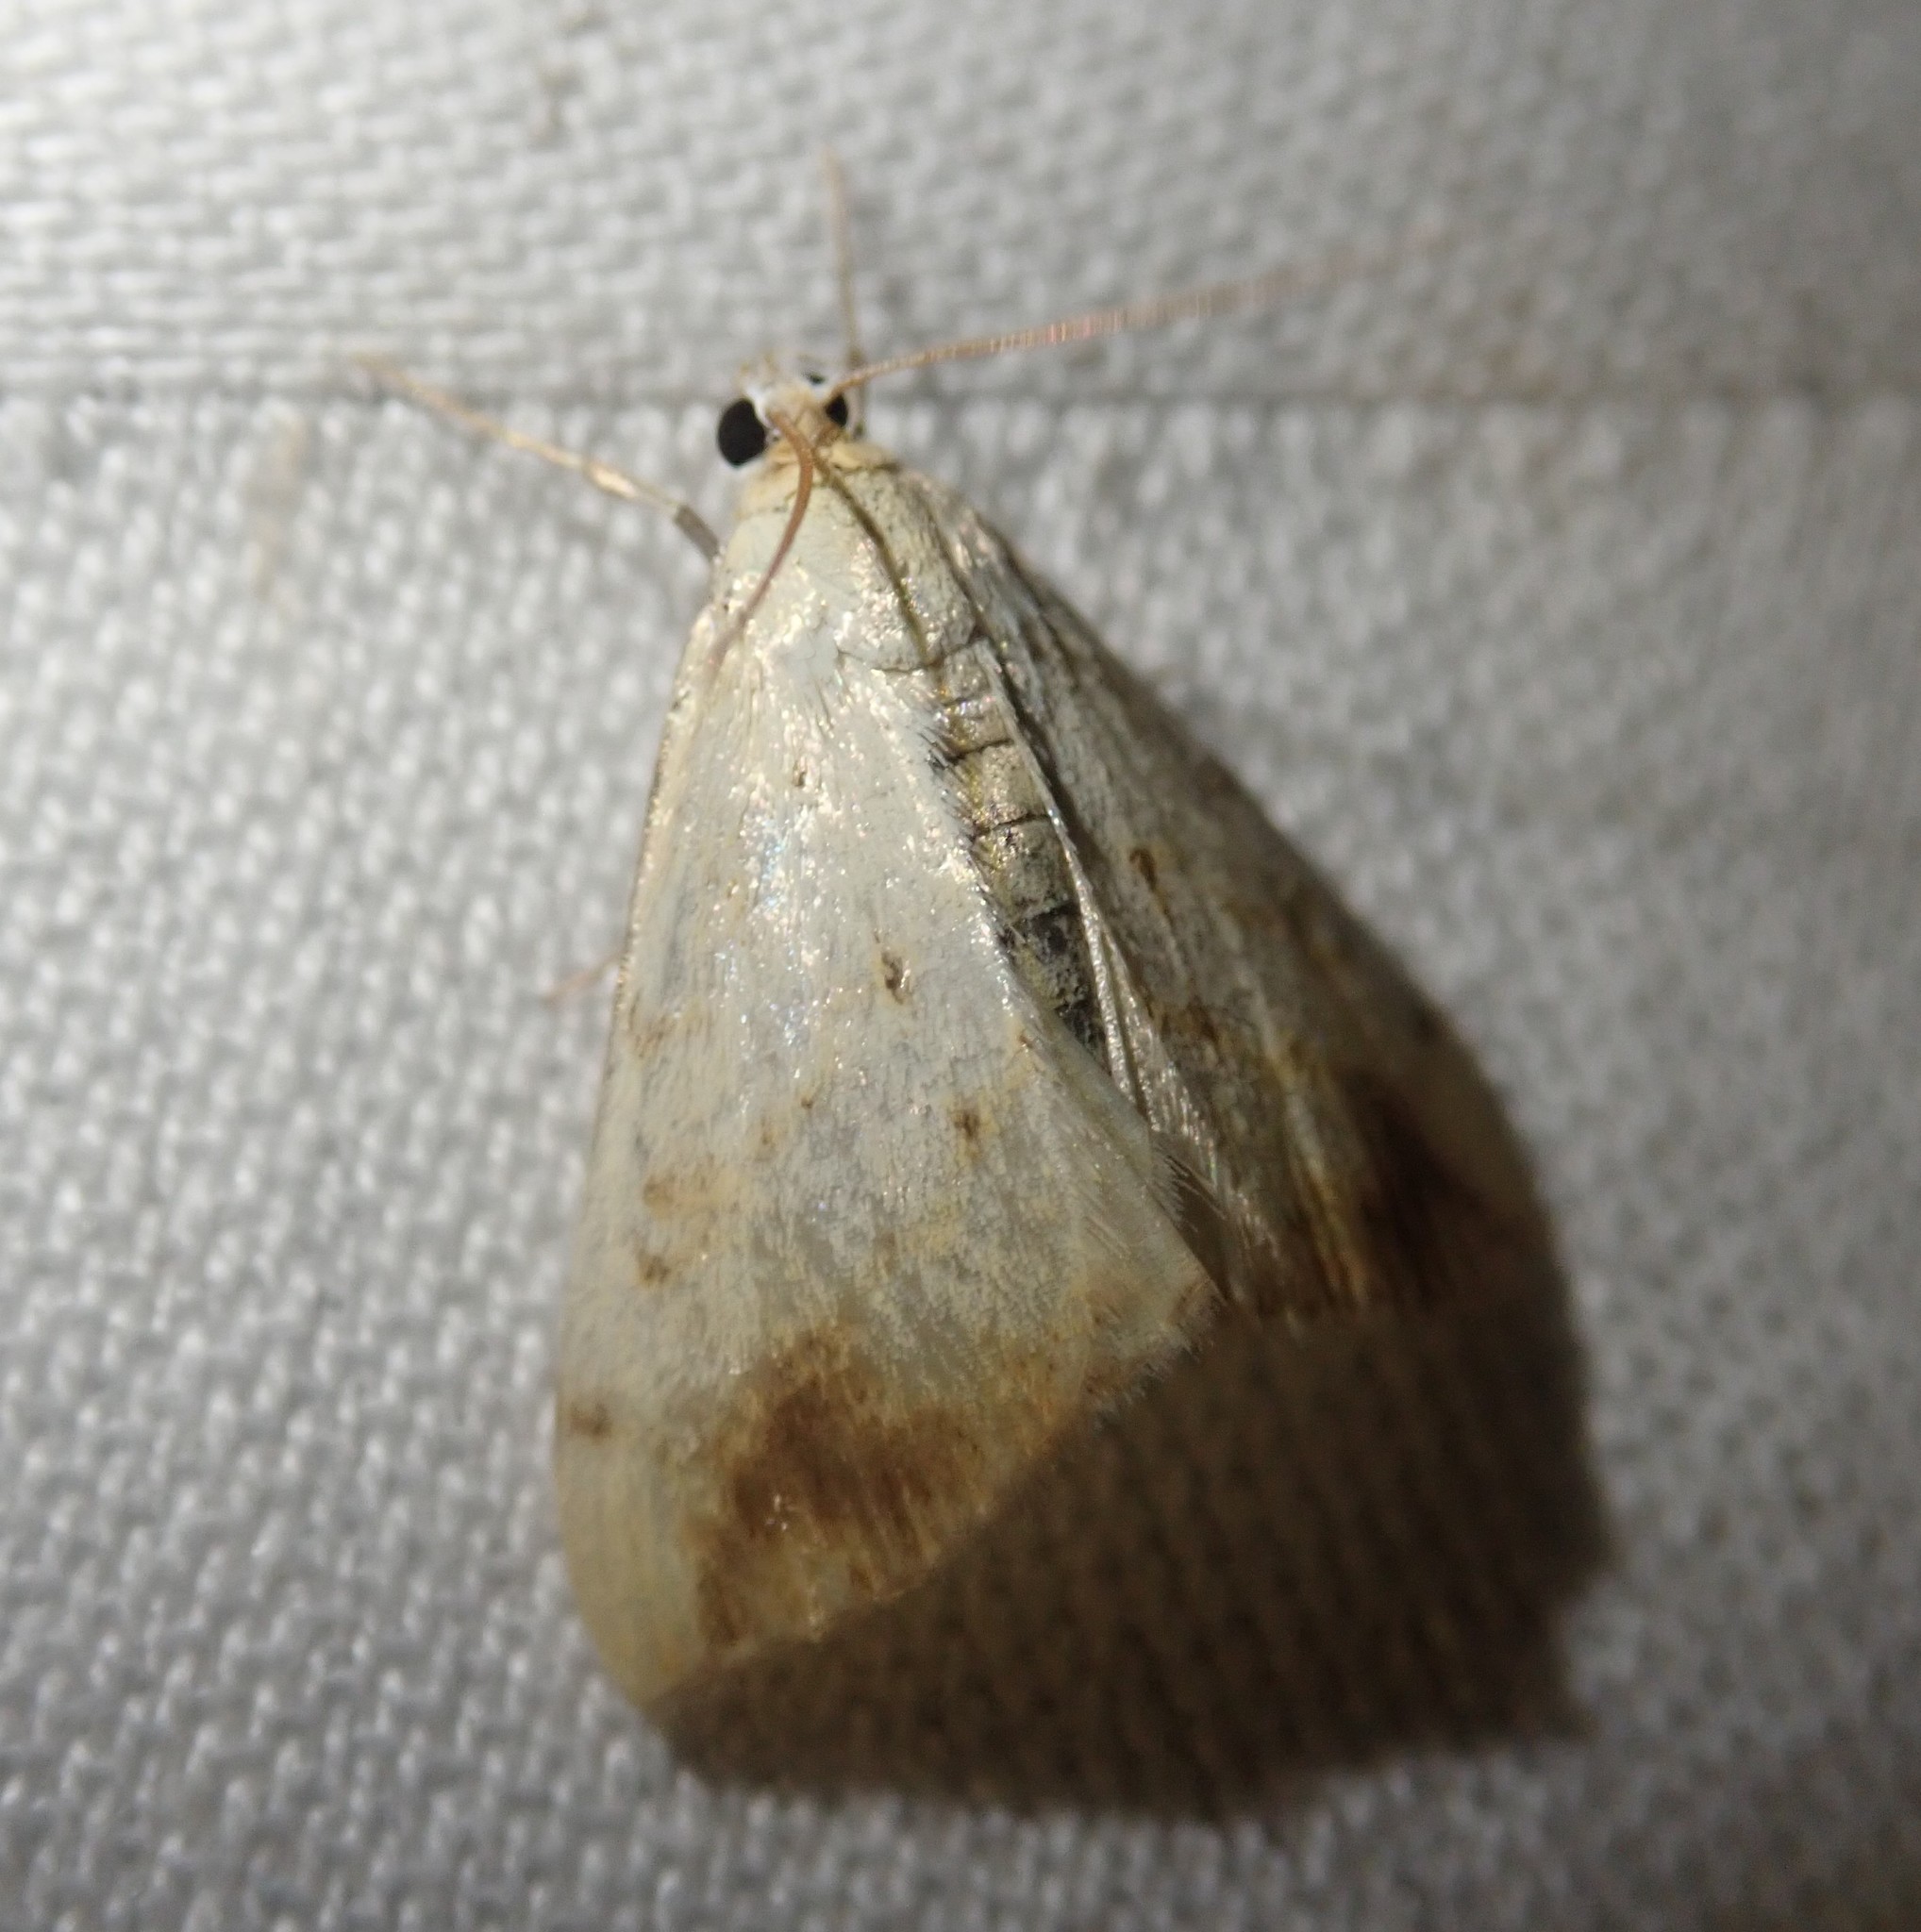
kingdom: Animalia
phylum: Arthropoda
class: Insecta
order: Lepidoptera
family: Crambidae
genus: Evergestis
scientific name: Evergestis extimalis
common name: Marbled yellow pearl
